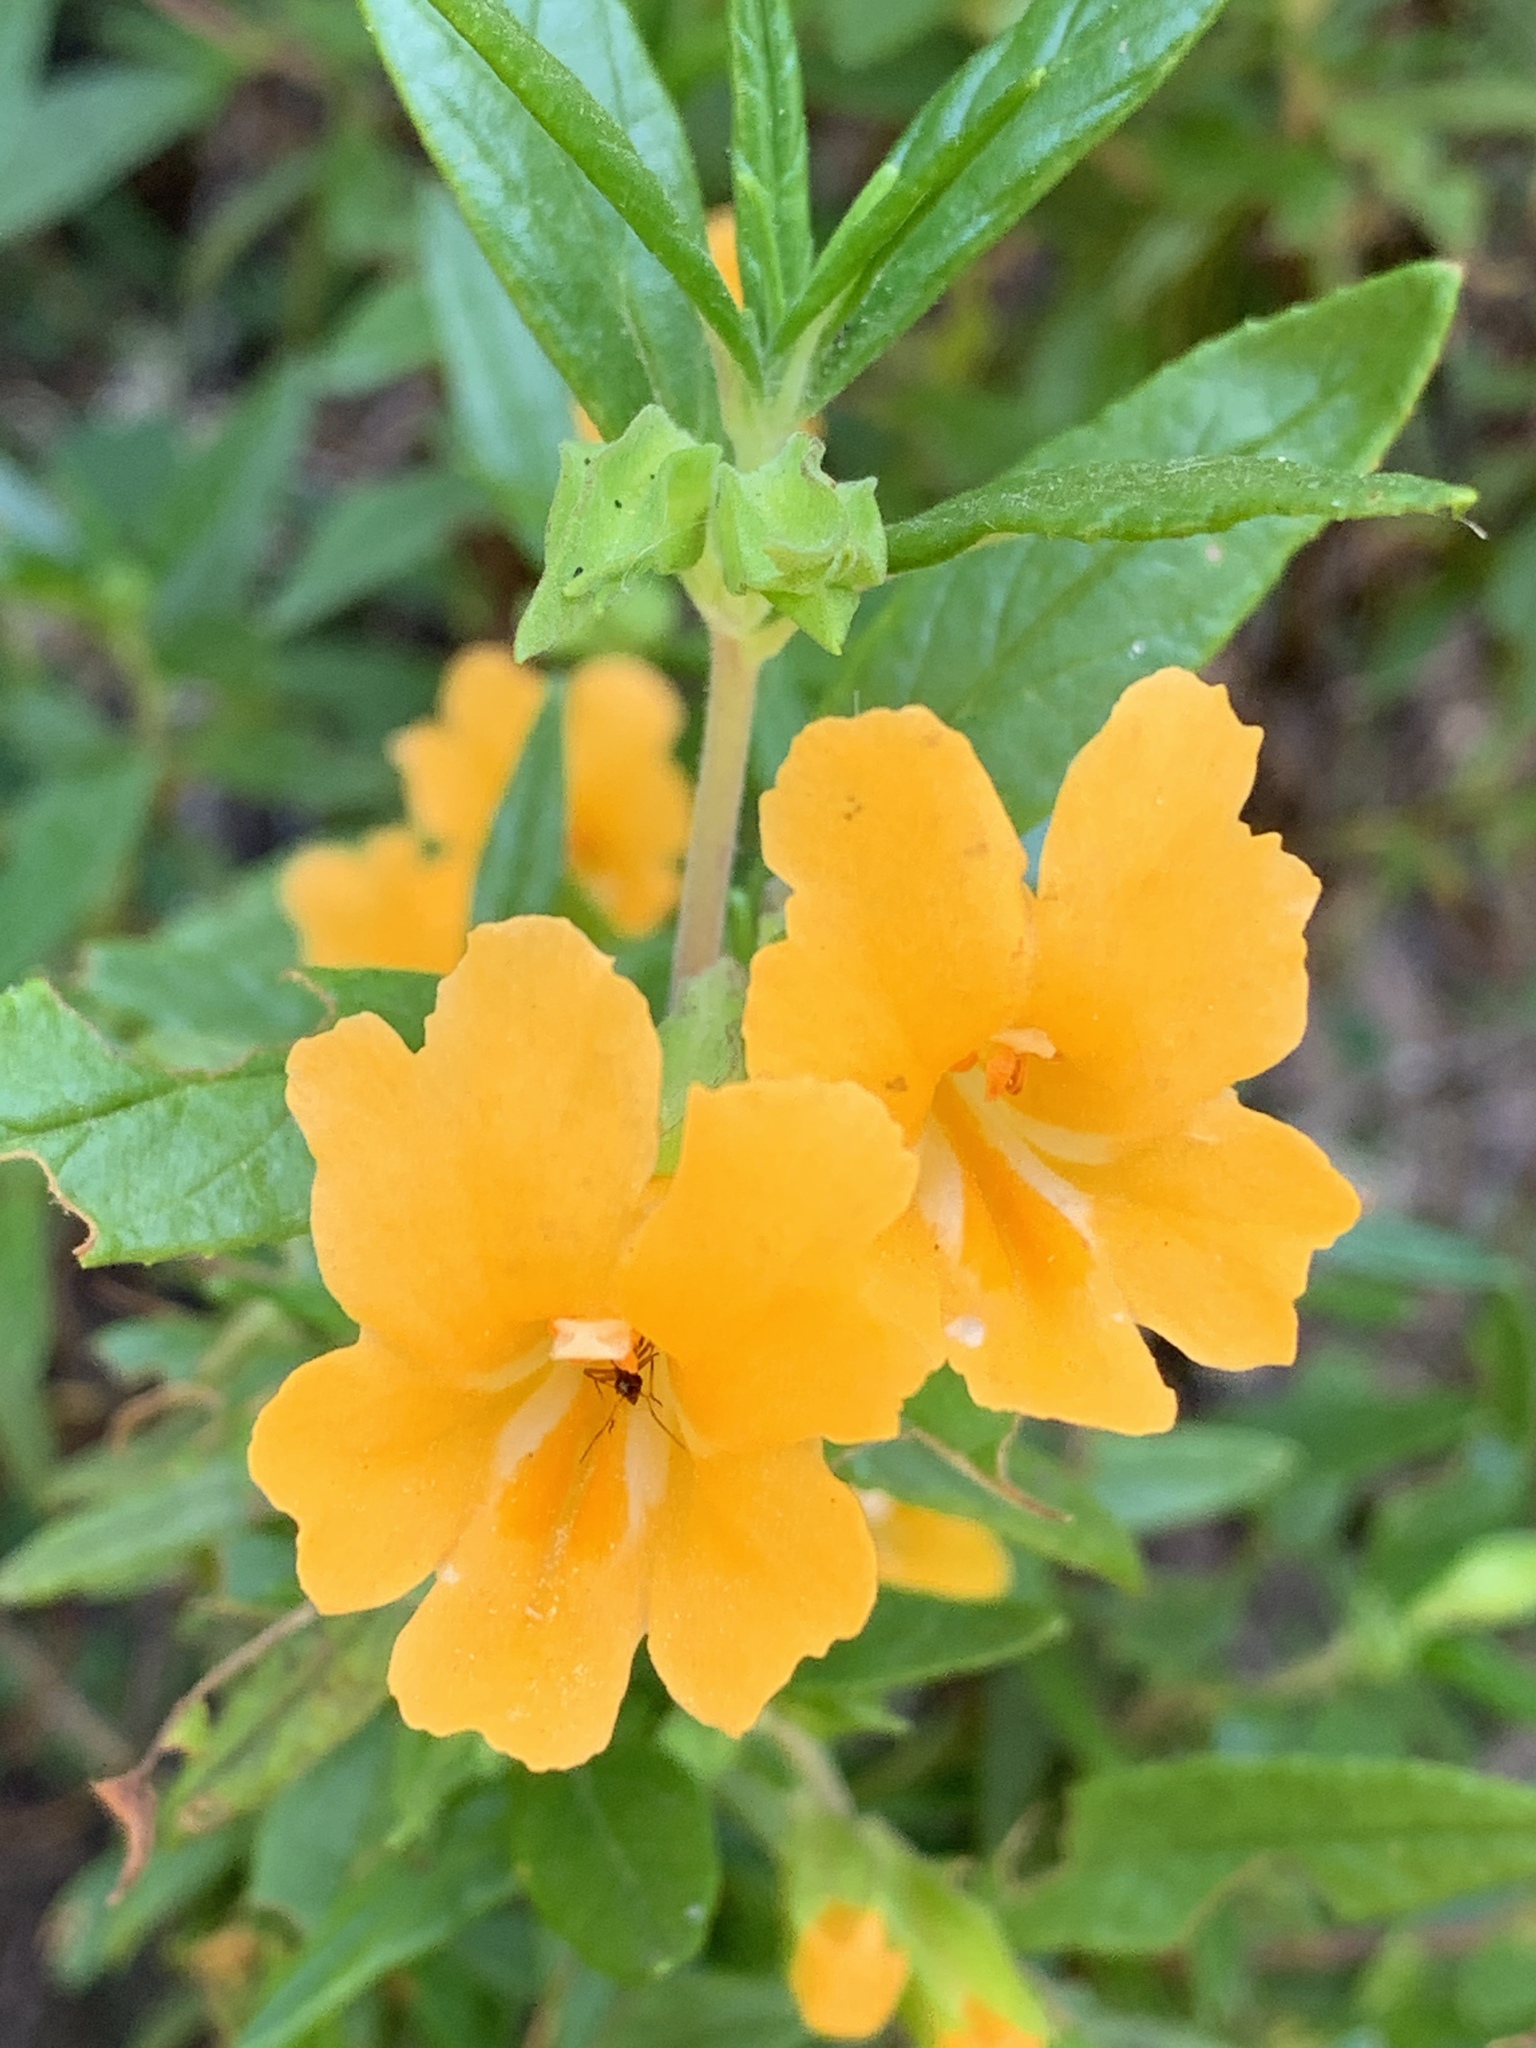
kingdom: Plantae
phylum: Tracheophyta
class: Magnoliopsida
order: Lamiales
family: Phrymaceae
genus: Diplacus
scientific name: Diplacus aurantiacus
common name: Bush monkey-flower
